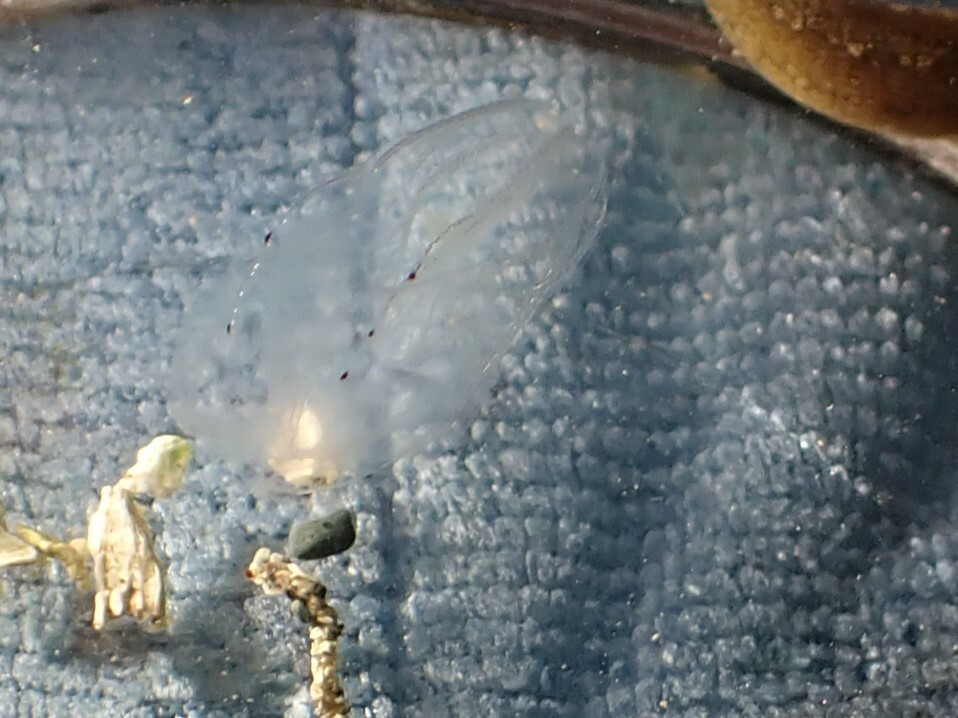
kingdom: Animalia
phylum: Ctenophora
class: Tentaculata
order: Lobata
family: Bolinopsidae
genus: Bolinopsis
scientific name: Bolinopsis microptera
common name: Short-lobed comb jelly
